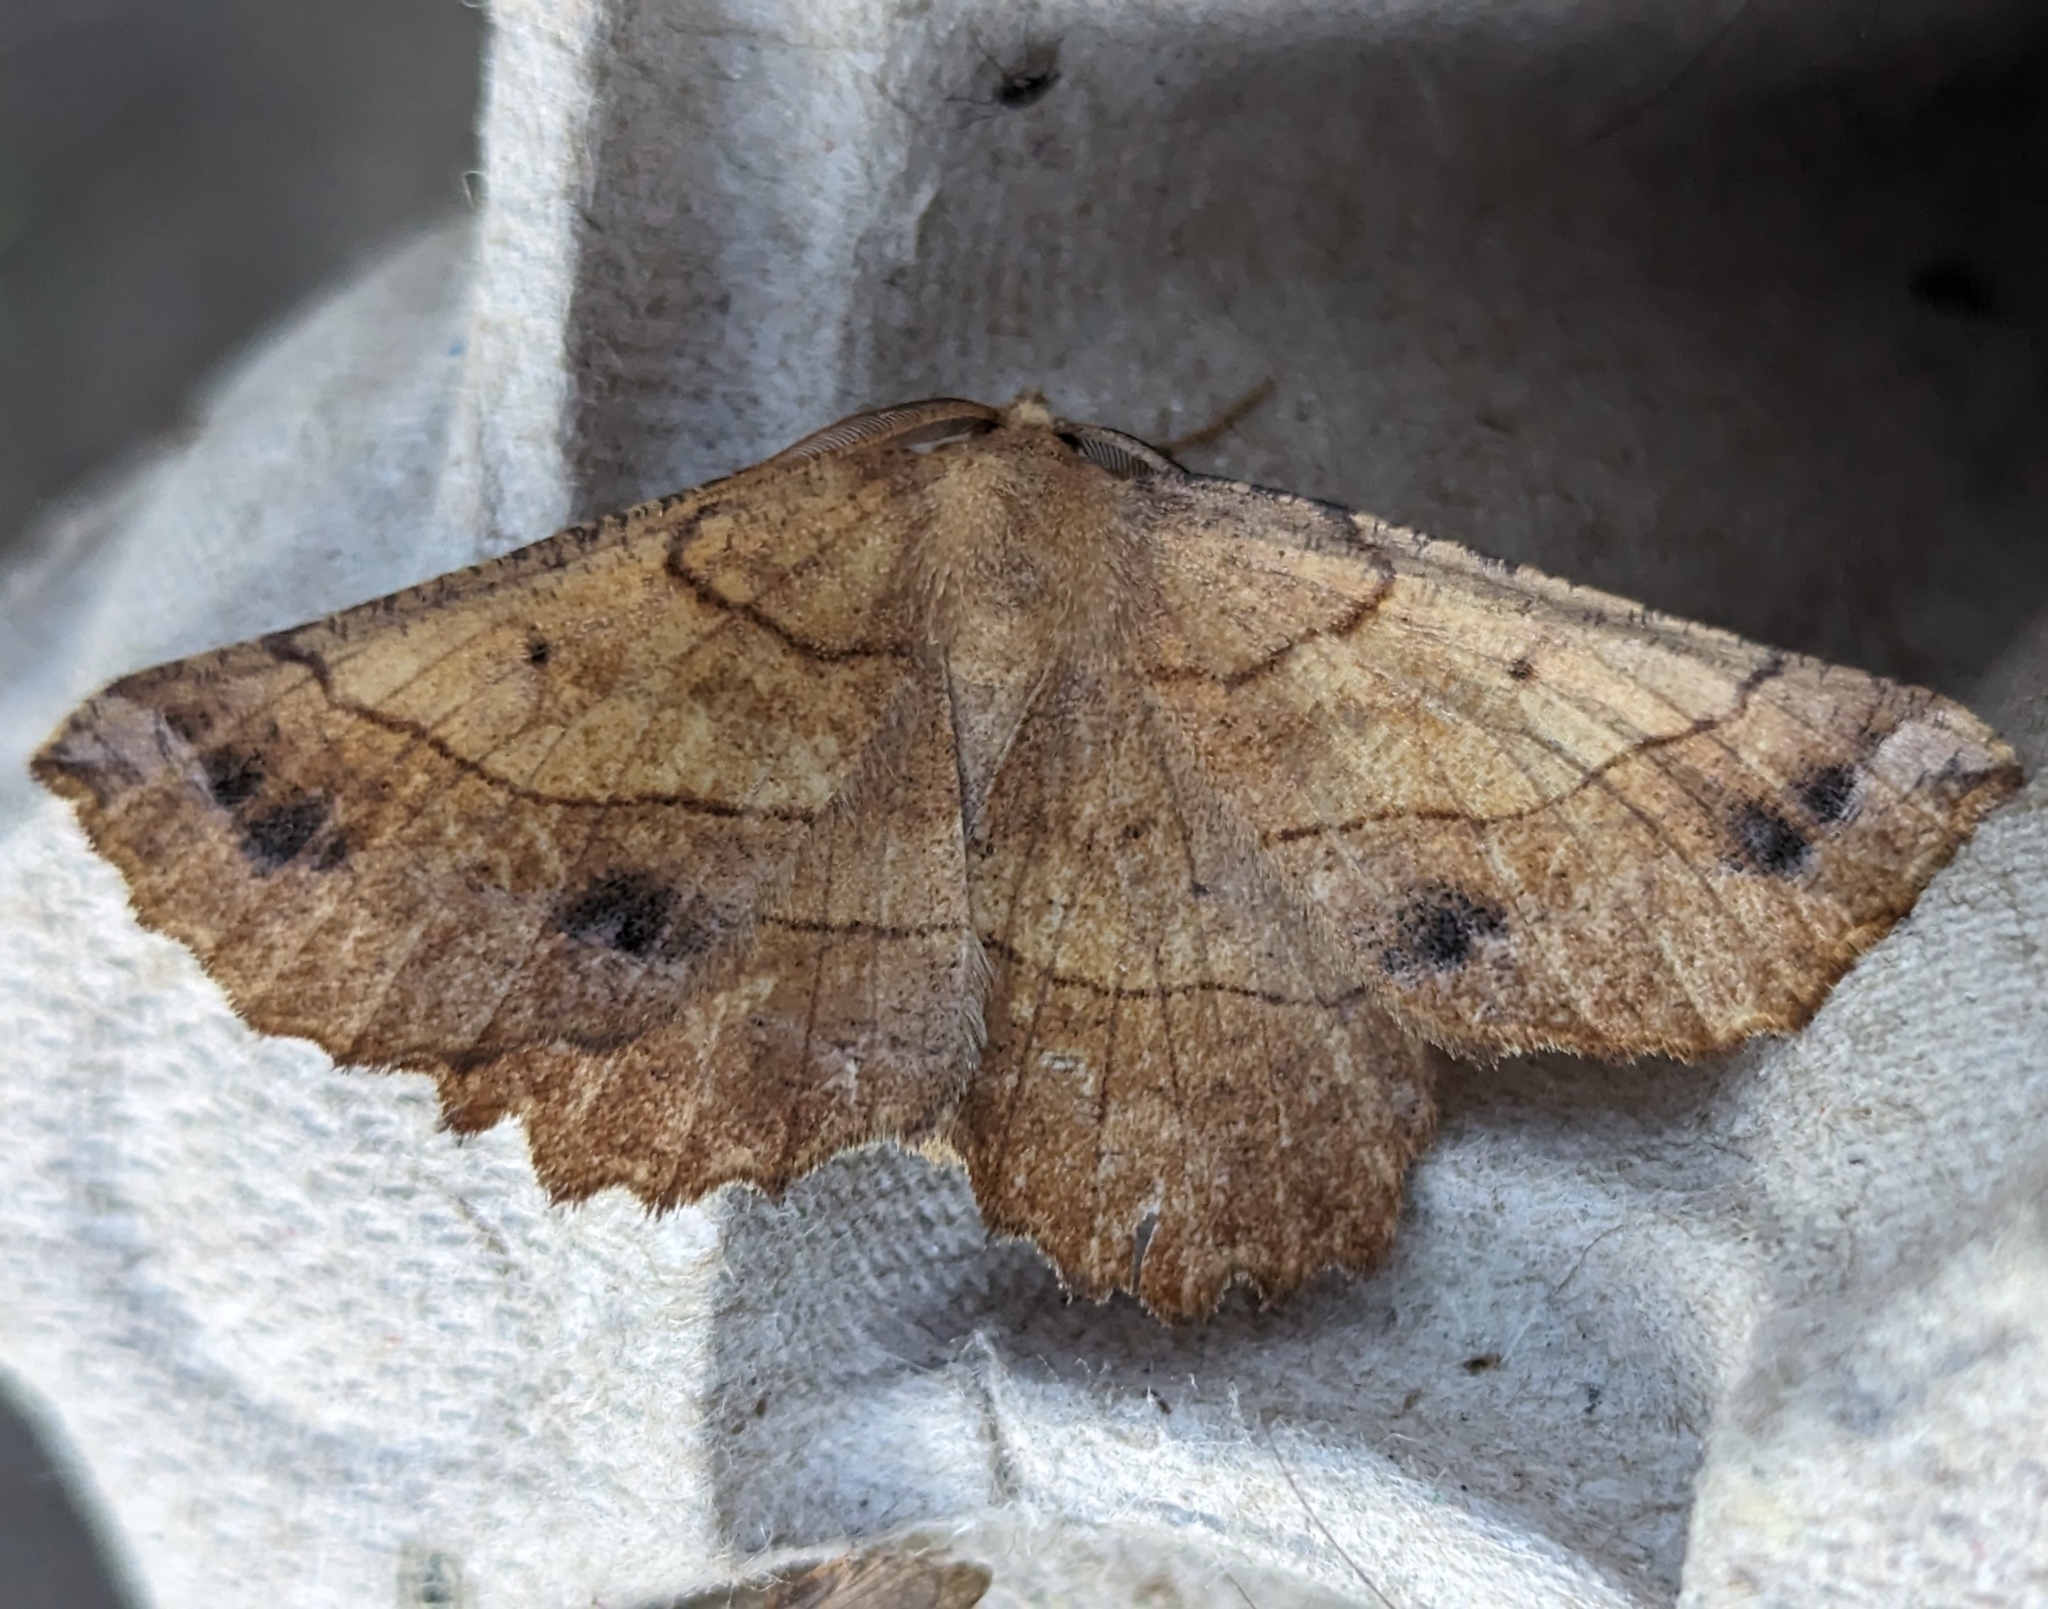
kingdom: Animalia
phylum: Arthropoda
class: Insecta
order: Lepidoptera
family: Geometridae
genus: Euchlaena
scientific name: Euchlaena johnsonaria
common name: Johnson's euchlaena
